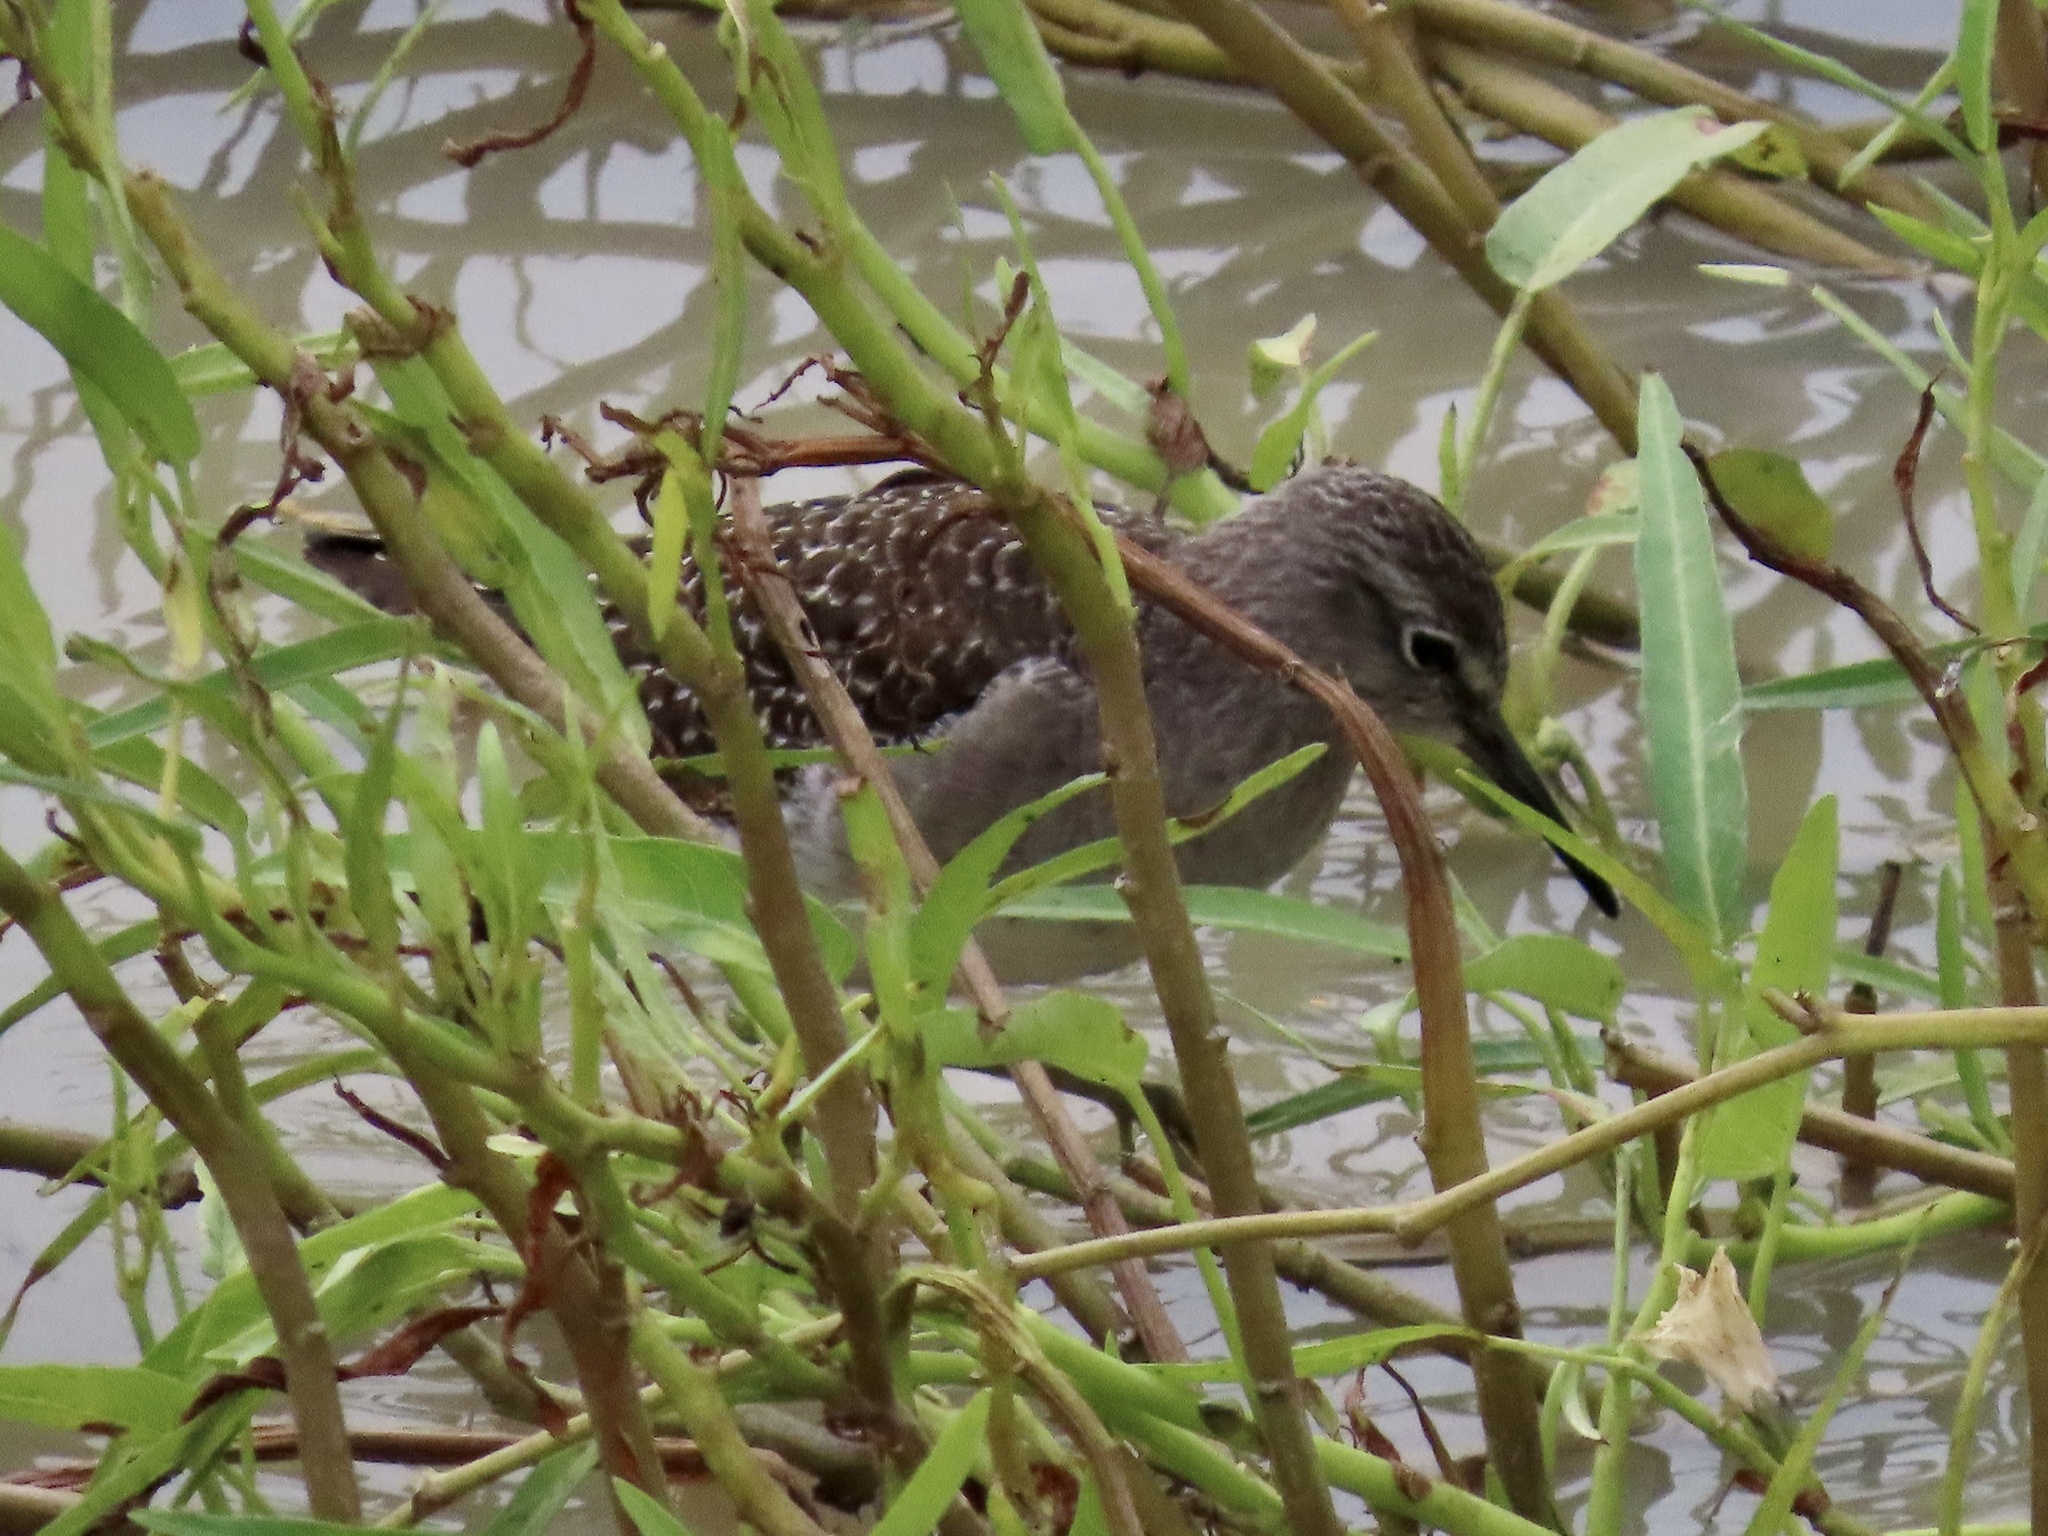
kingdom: Animalia
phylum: Chordata
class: Aves
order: Charadriiformes
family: Scolopacidae
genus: Tringa
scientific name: Tringa glareola
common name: Wood sandpiper
